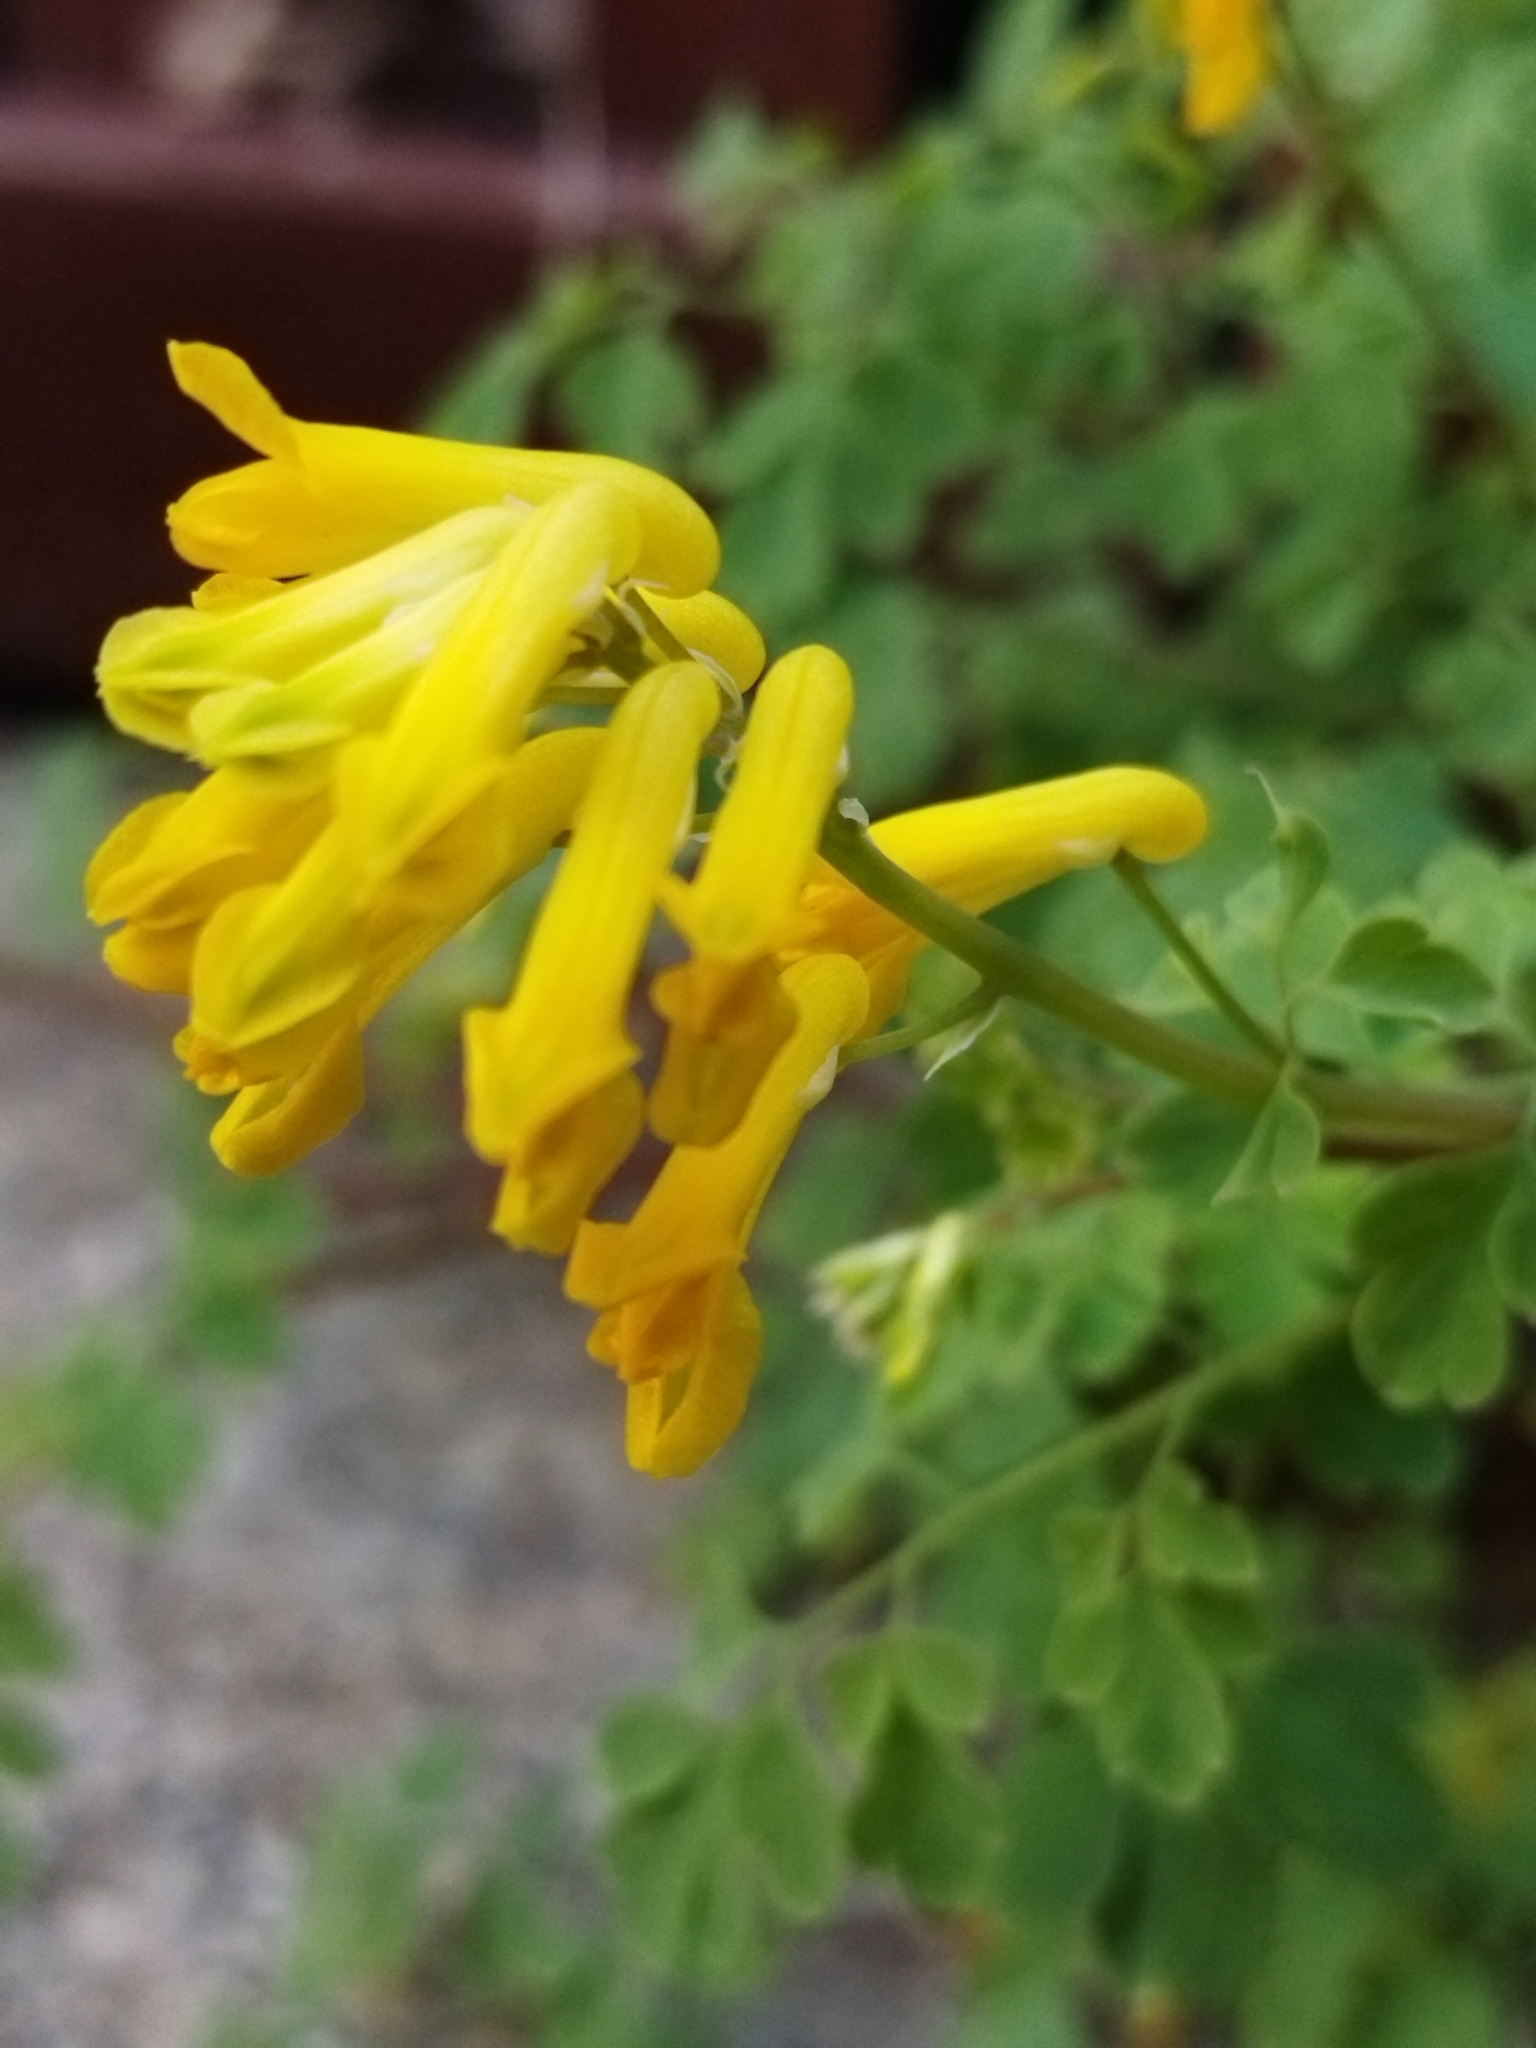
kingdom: Plantae
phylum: Tracheophyta
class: Magnoliopsida
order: Ranunculales
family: Papaveraceae
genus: Pseudofumaria
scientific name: Pseudofumaria lutea
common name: Yellow corydalis
